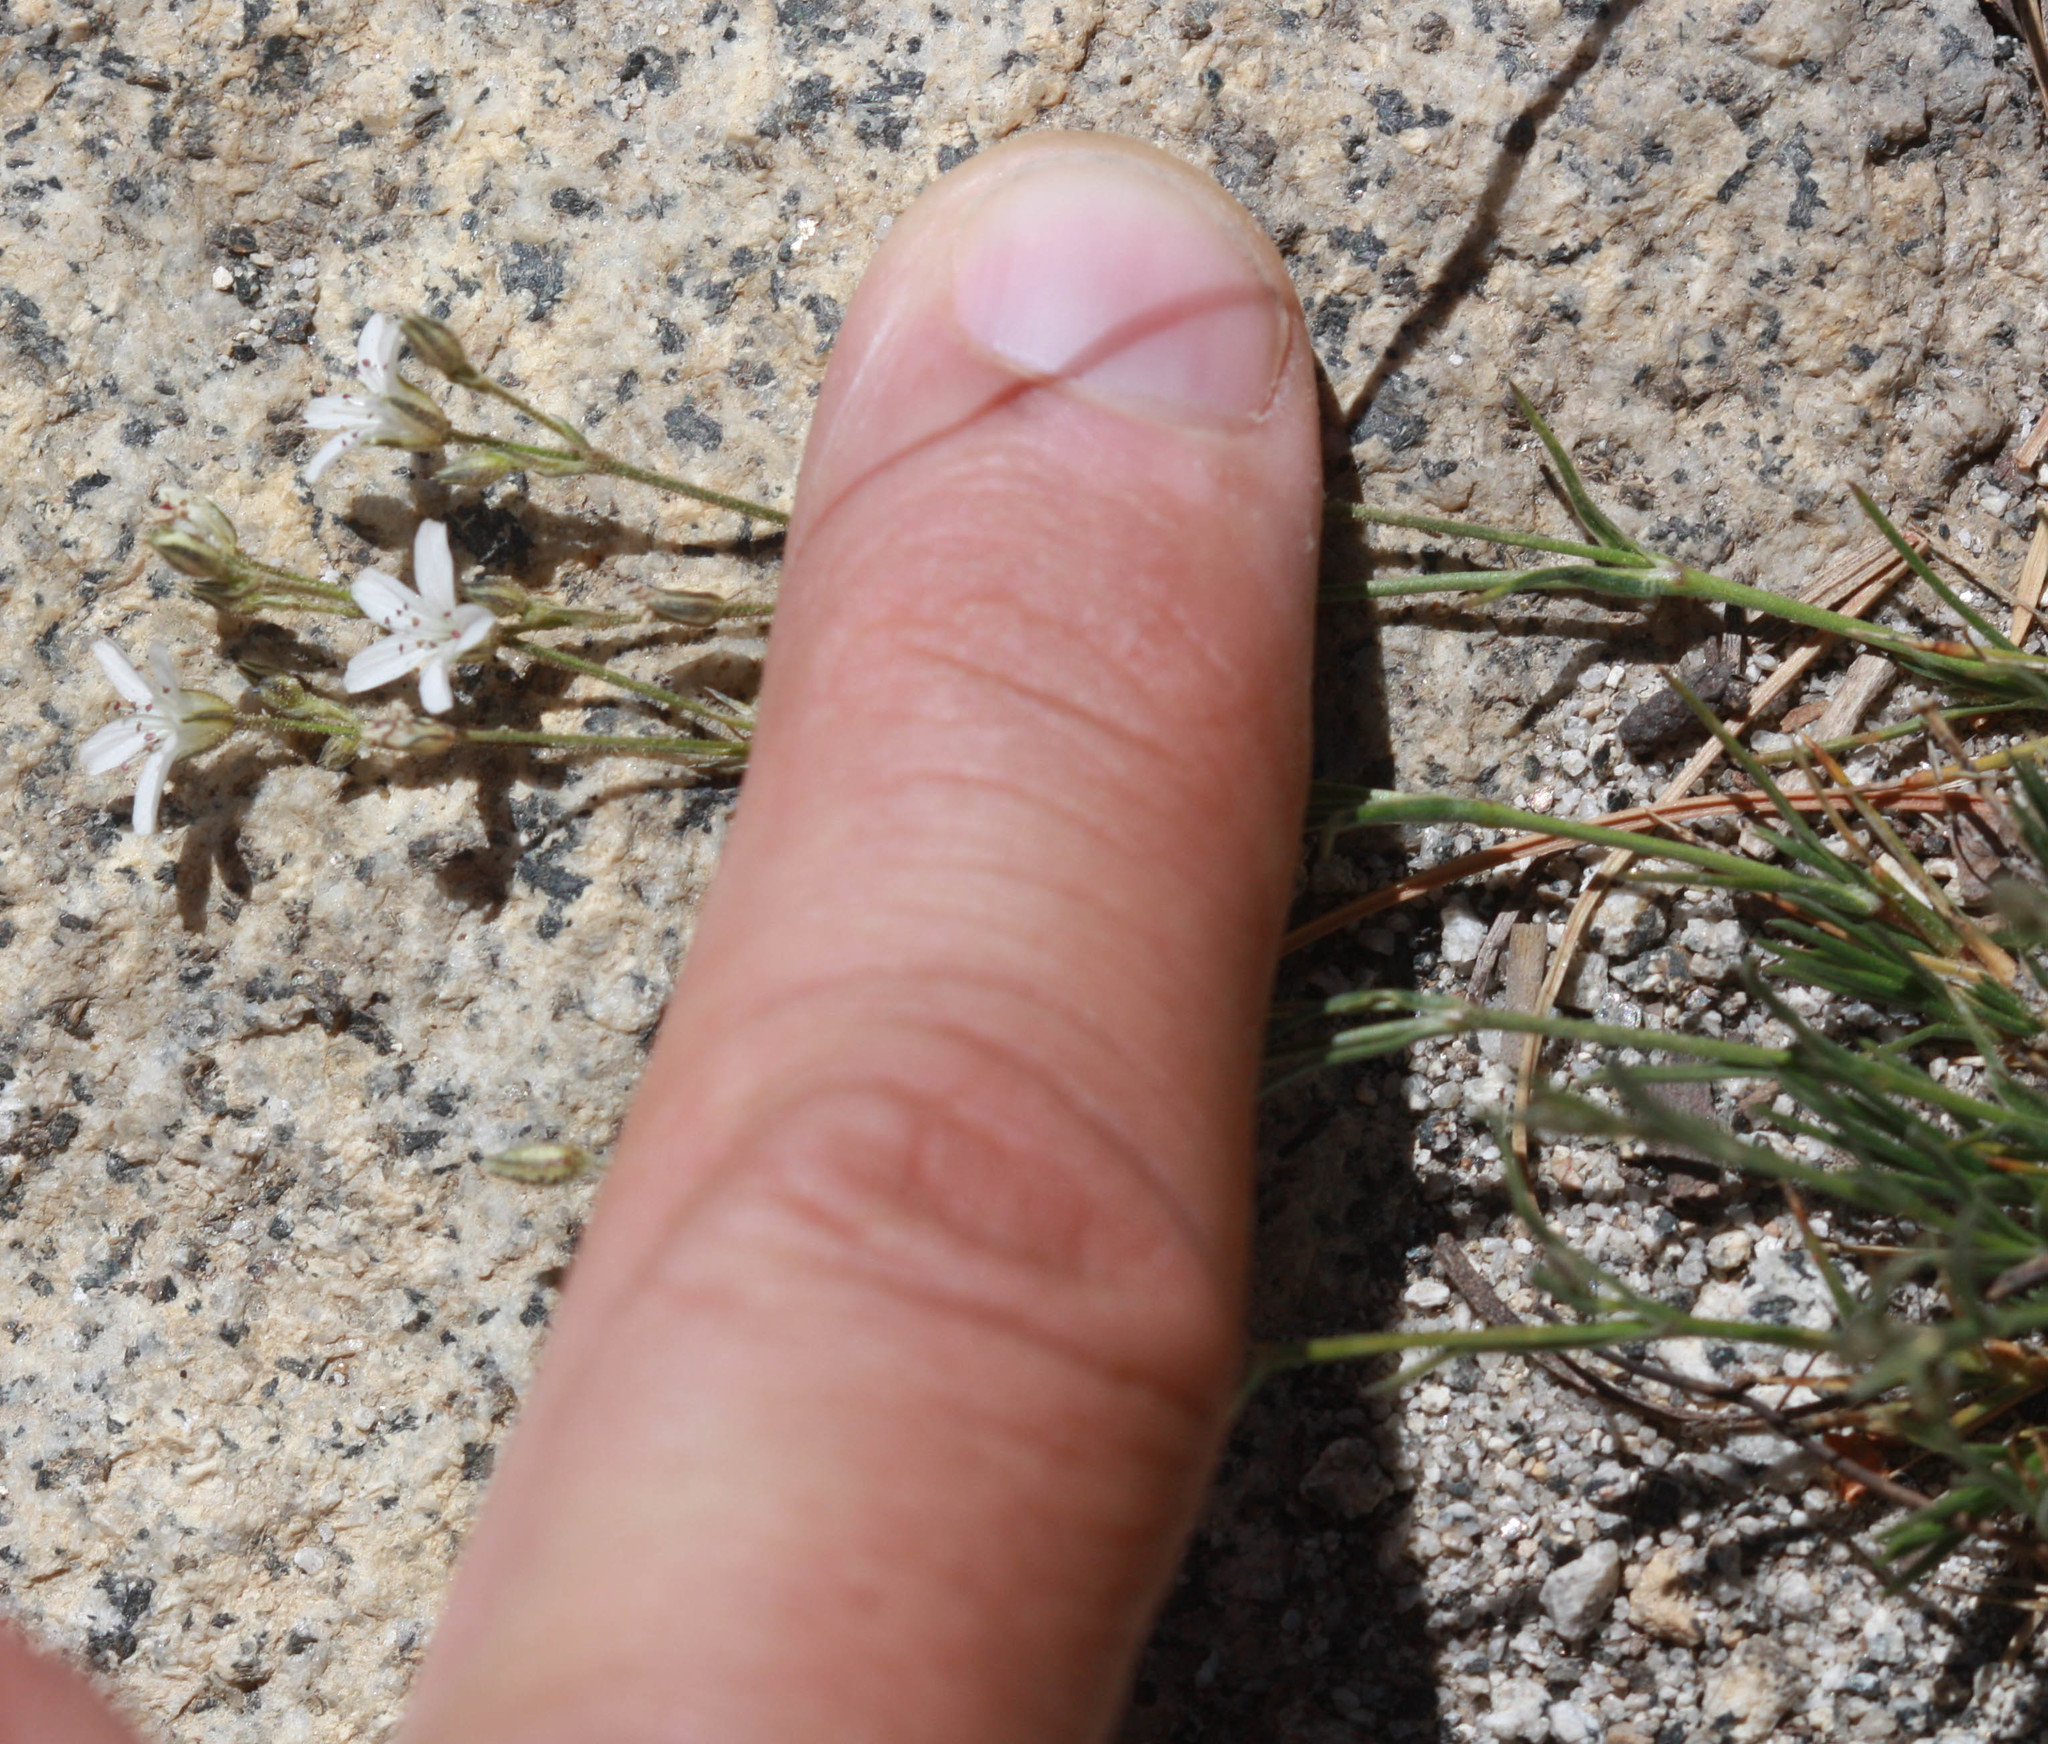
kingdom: Plantae
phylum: Tracheophyta
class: Magnoliopsida
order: Caryophyllales
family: Caryophyllaceae
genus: Eremogone
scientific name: Eremogone kingii
